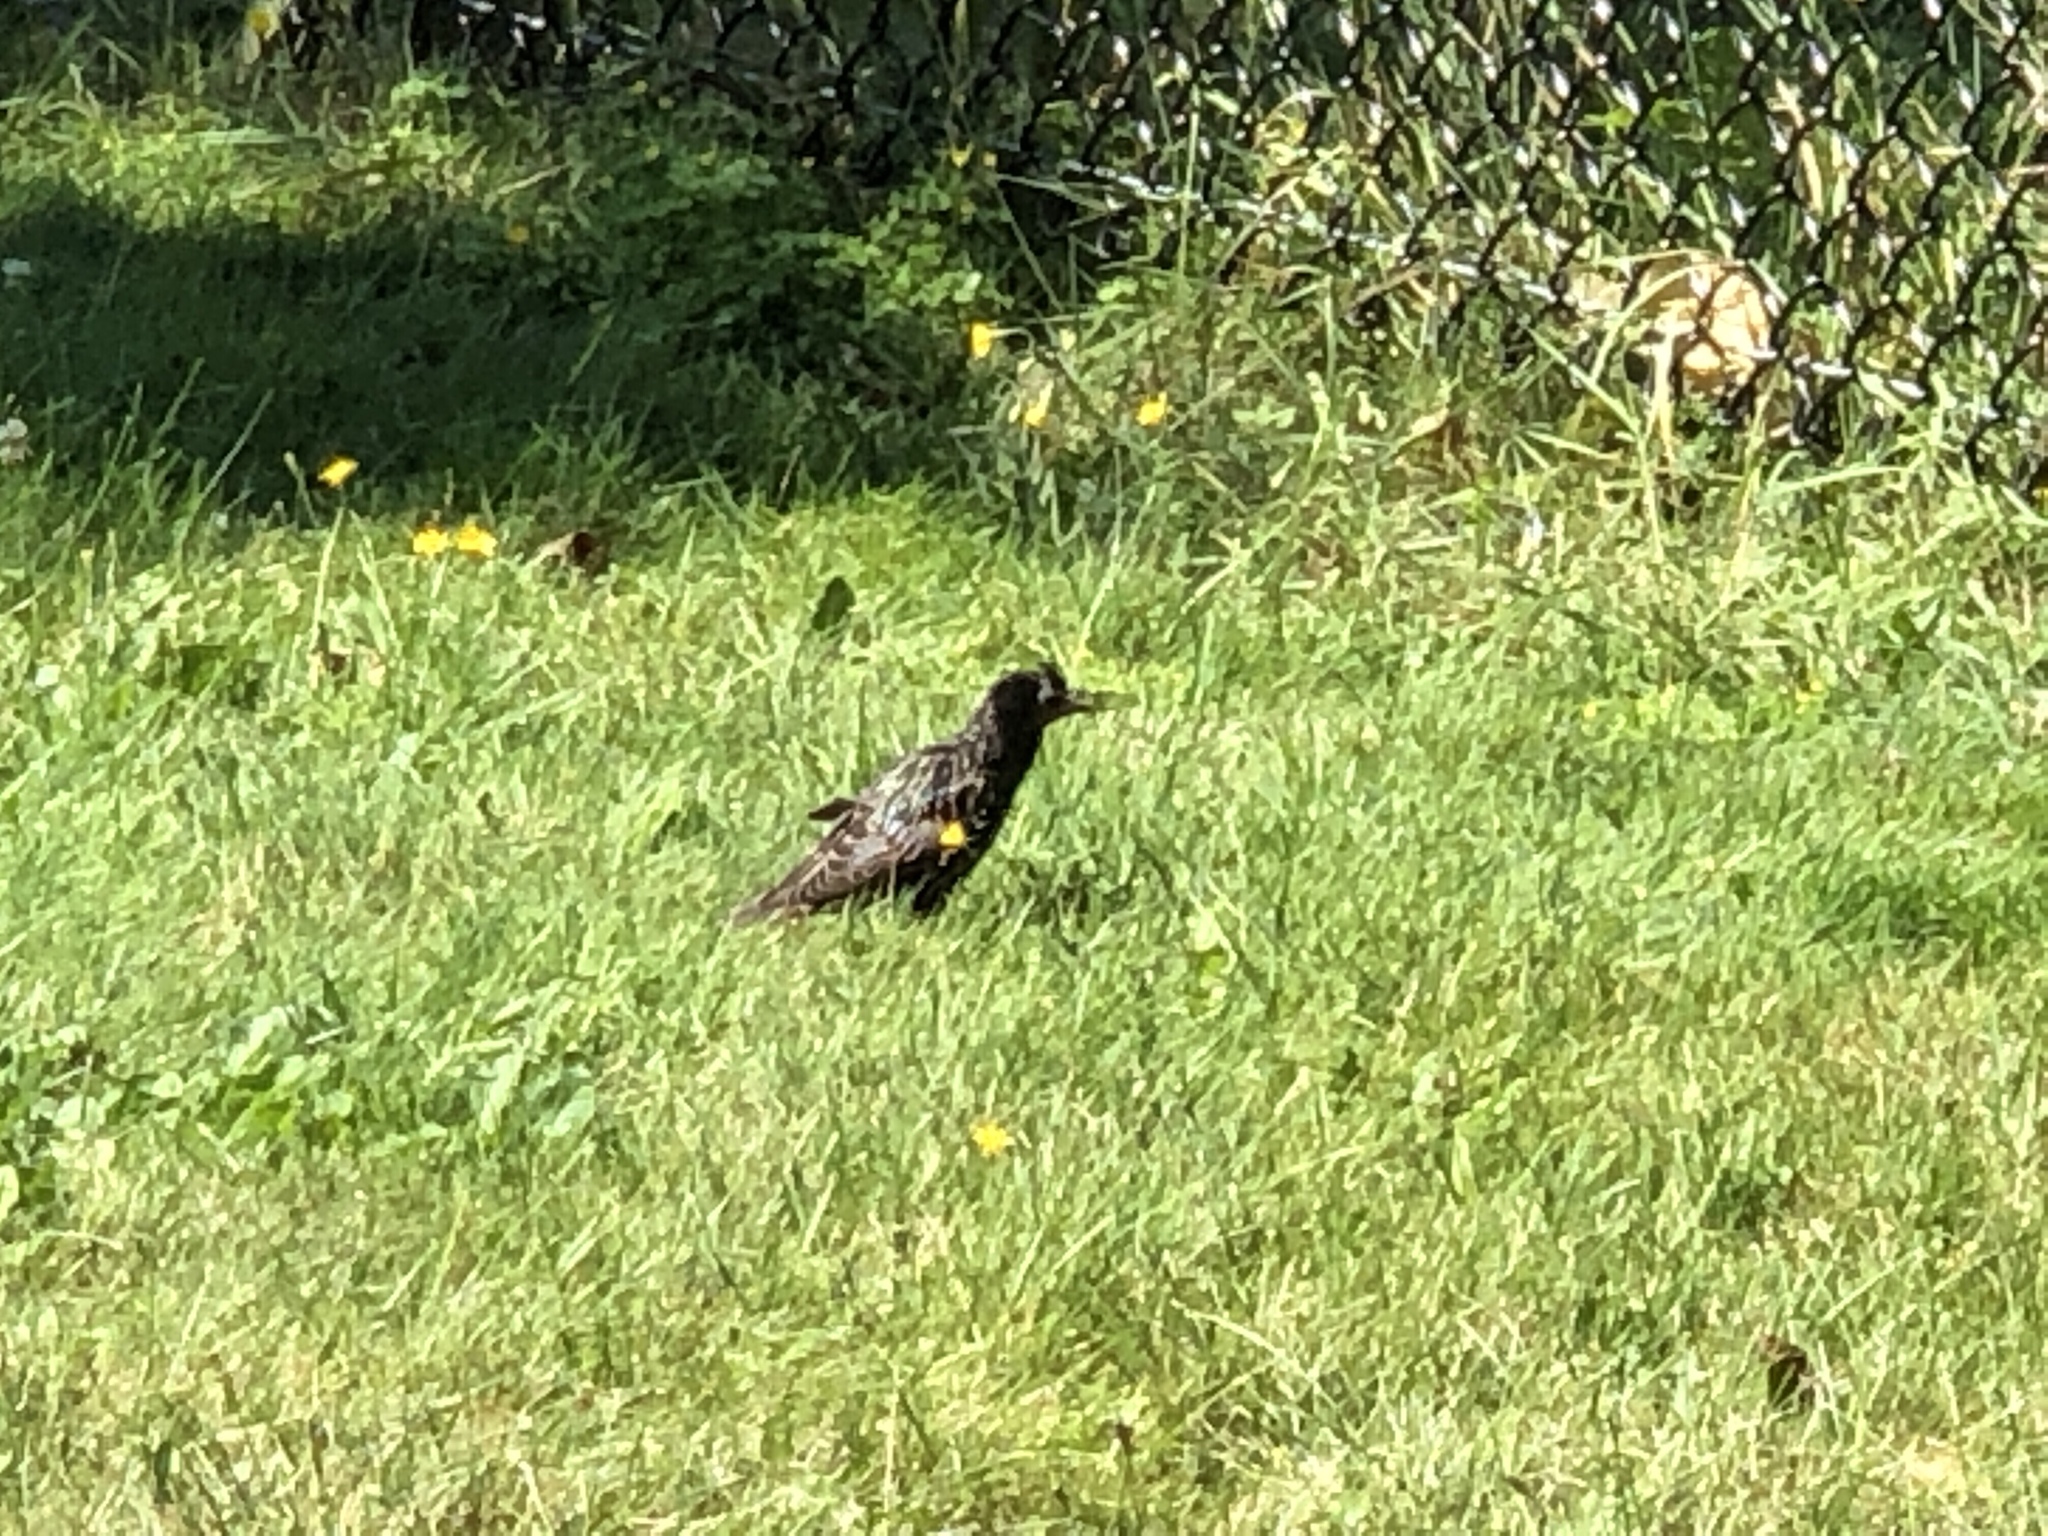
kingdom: Animalia
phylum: Chordata
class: Aves
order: Passeriformes
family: Sturnidae
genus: Sturnus
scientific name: Sturnus vulgaris
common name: Common starling
